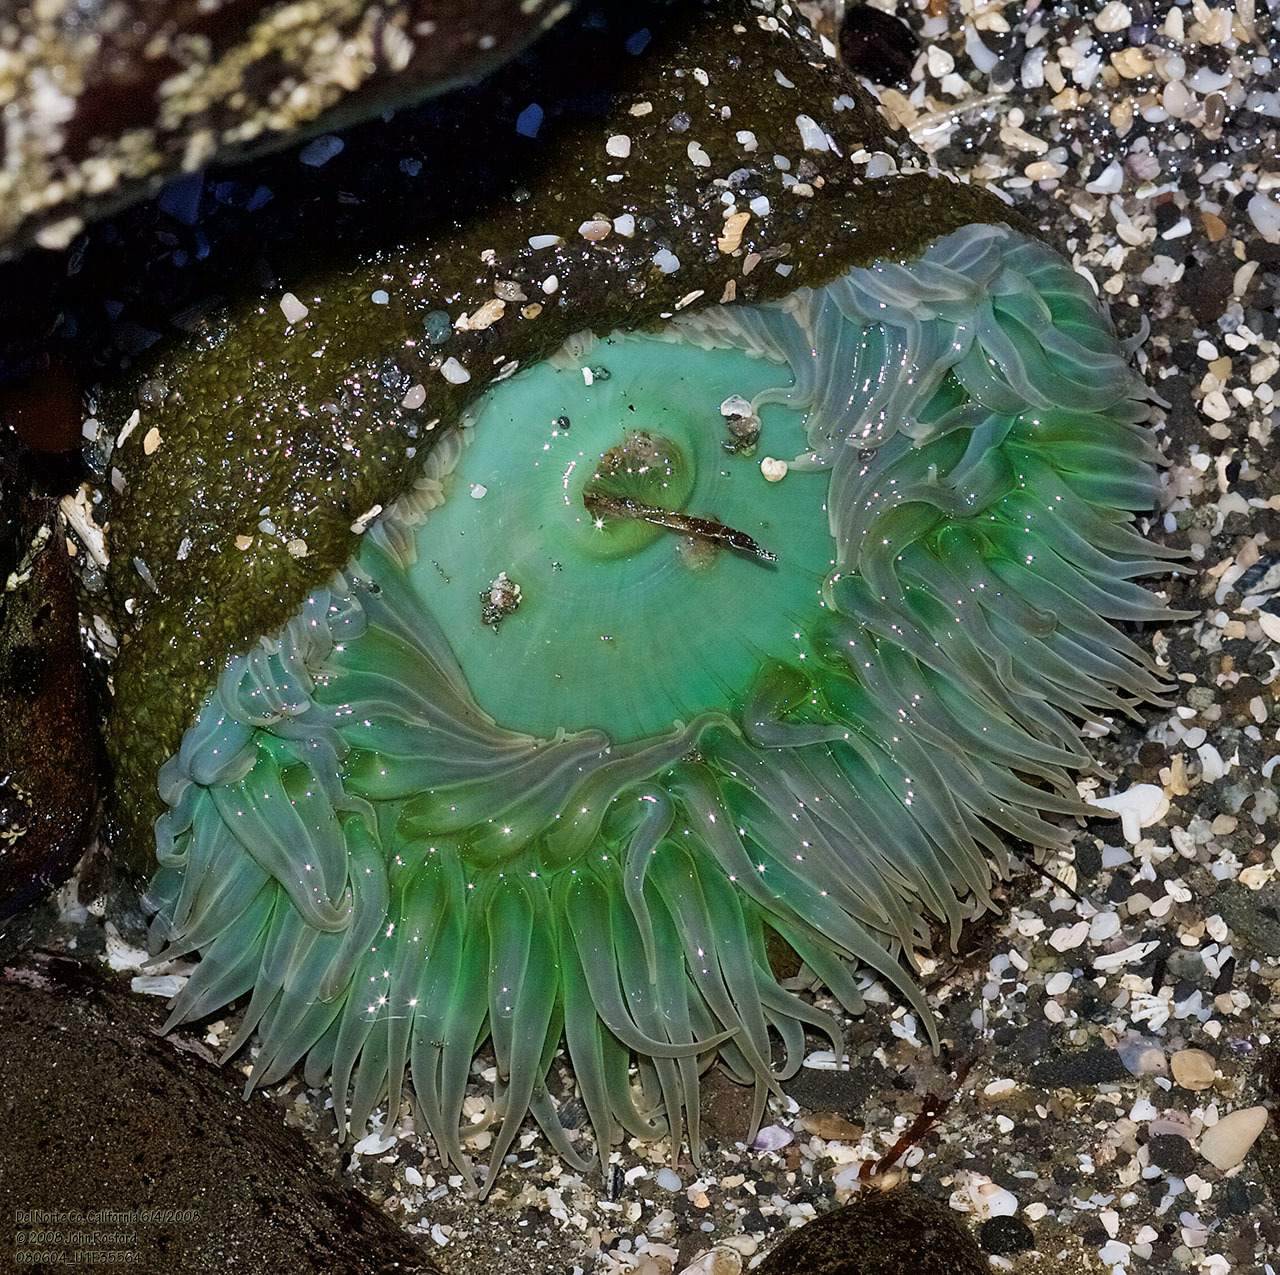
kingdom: Animalia
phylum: Cnidaria
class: Anthozoa
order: Actiniaria
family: Actiniidae
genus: Anthopleura
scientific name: Anthopleura xanthogrammica
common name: Giant green anemone
